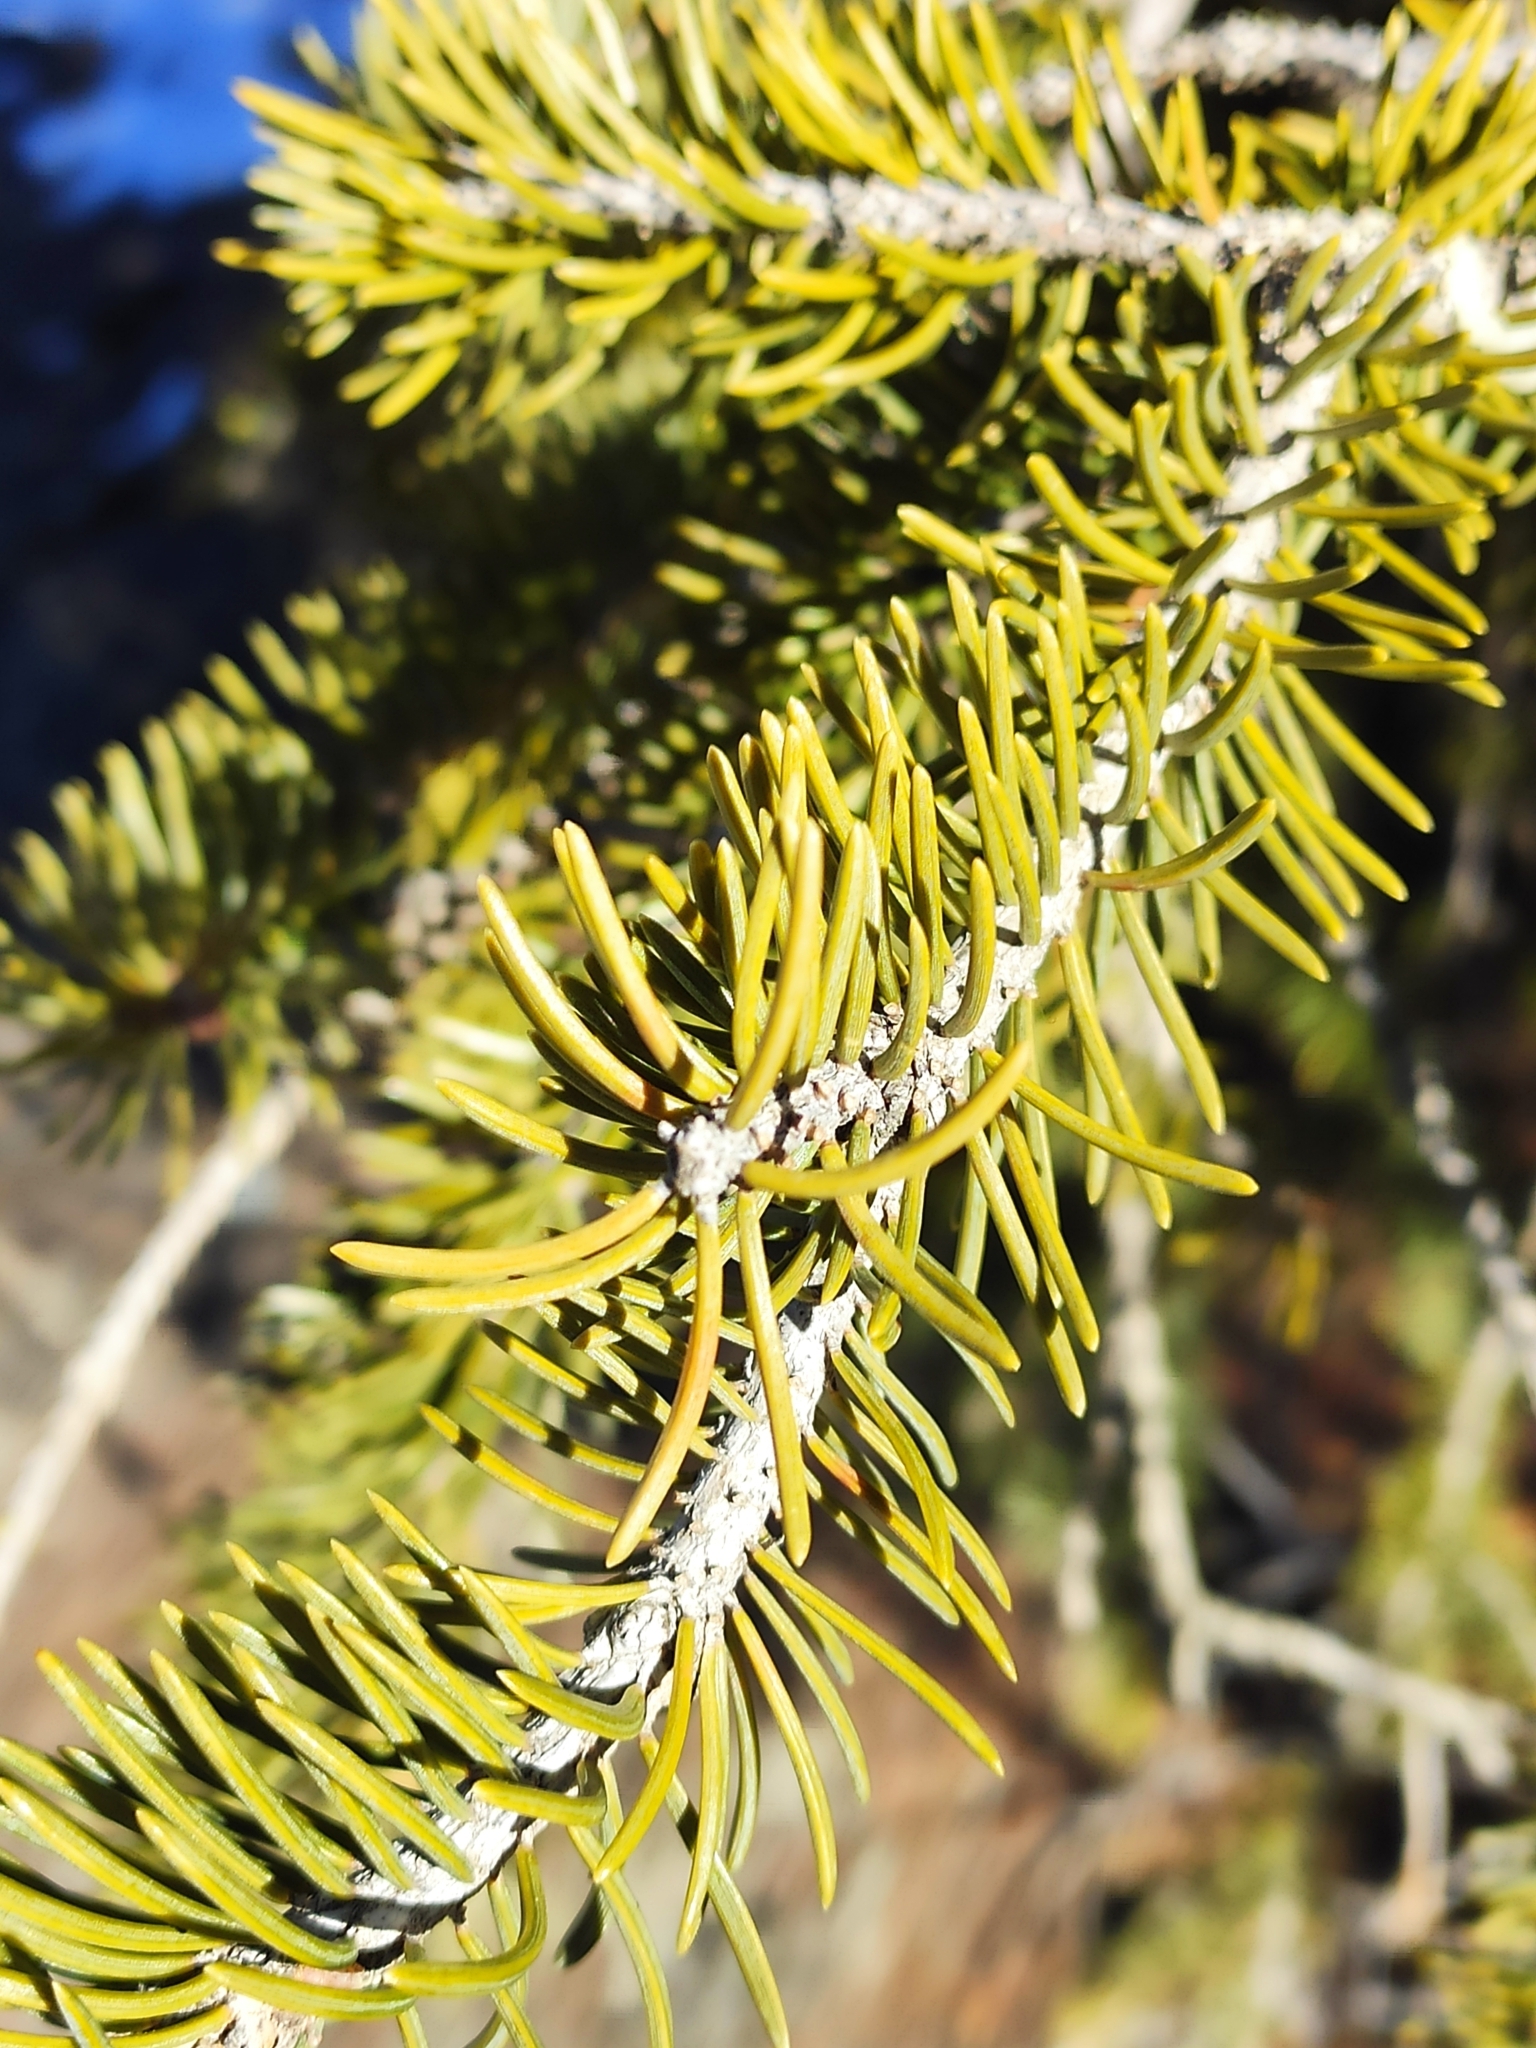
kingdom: Plantae
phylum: Tracheophyta
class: Pinopsida
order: Pinales
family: Pinaceae
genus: Picea
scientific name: Picea schrenkiana
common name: Asian spruce
